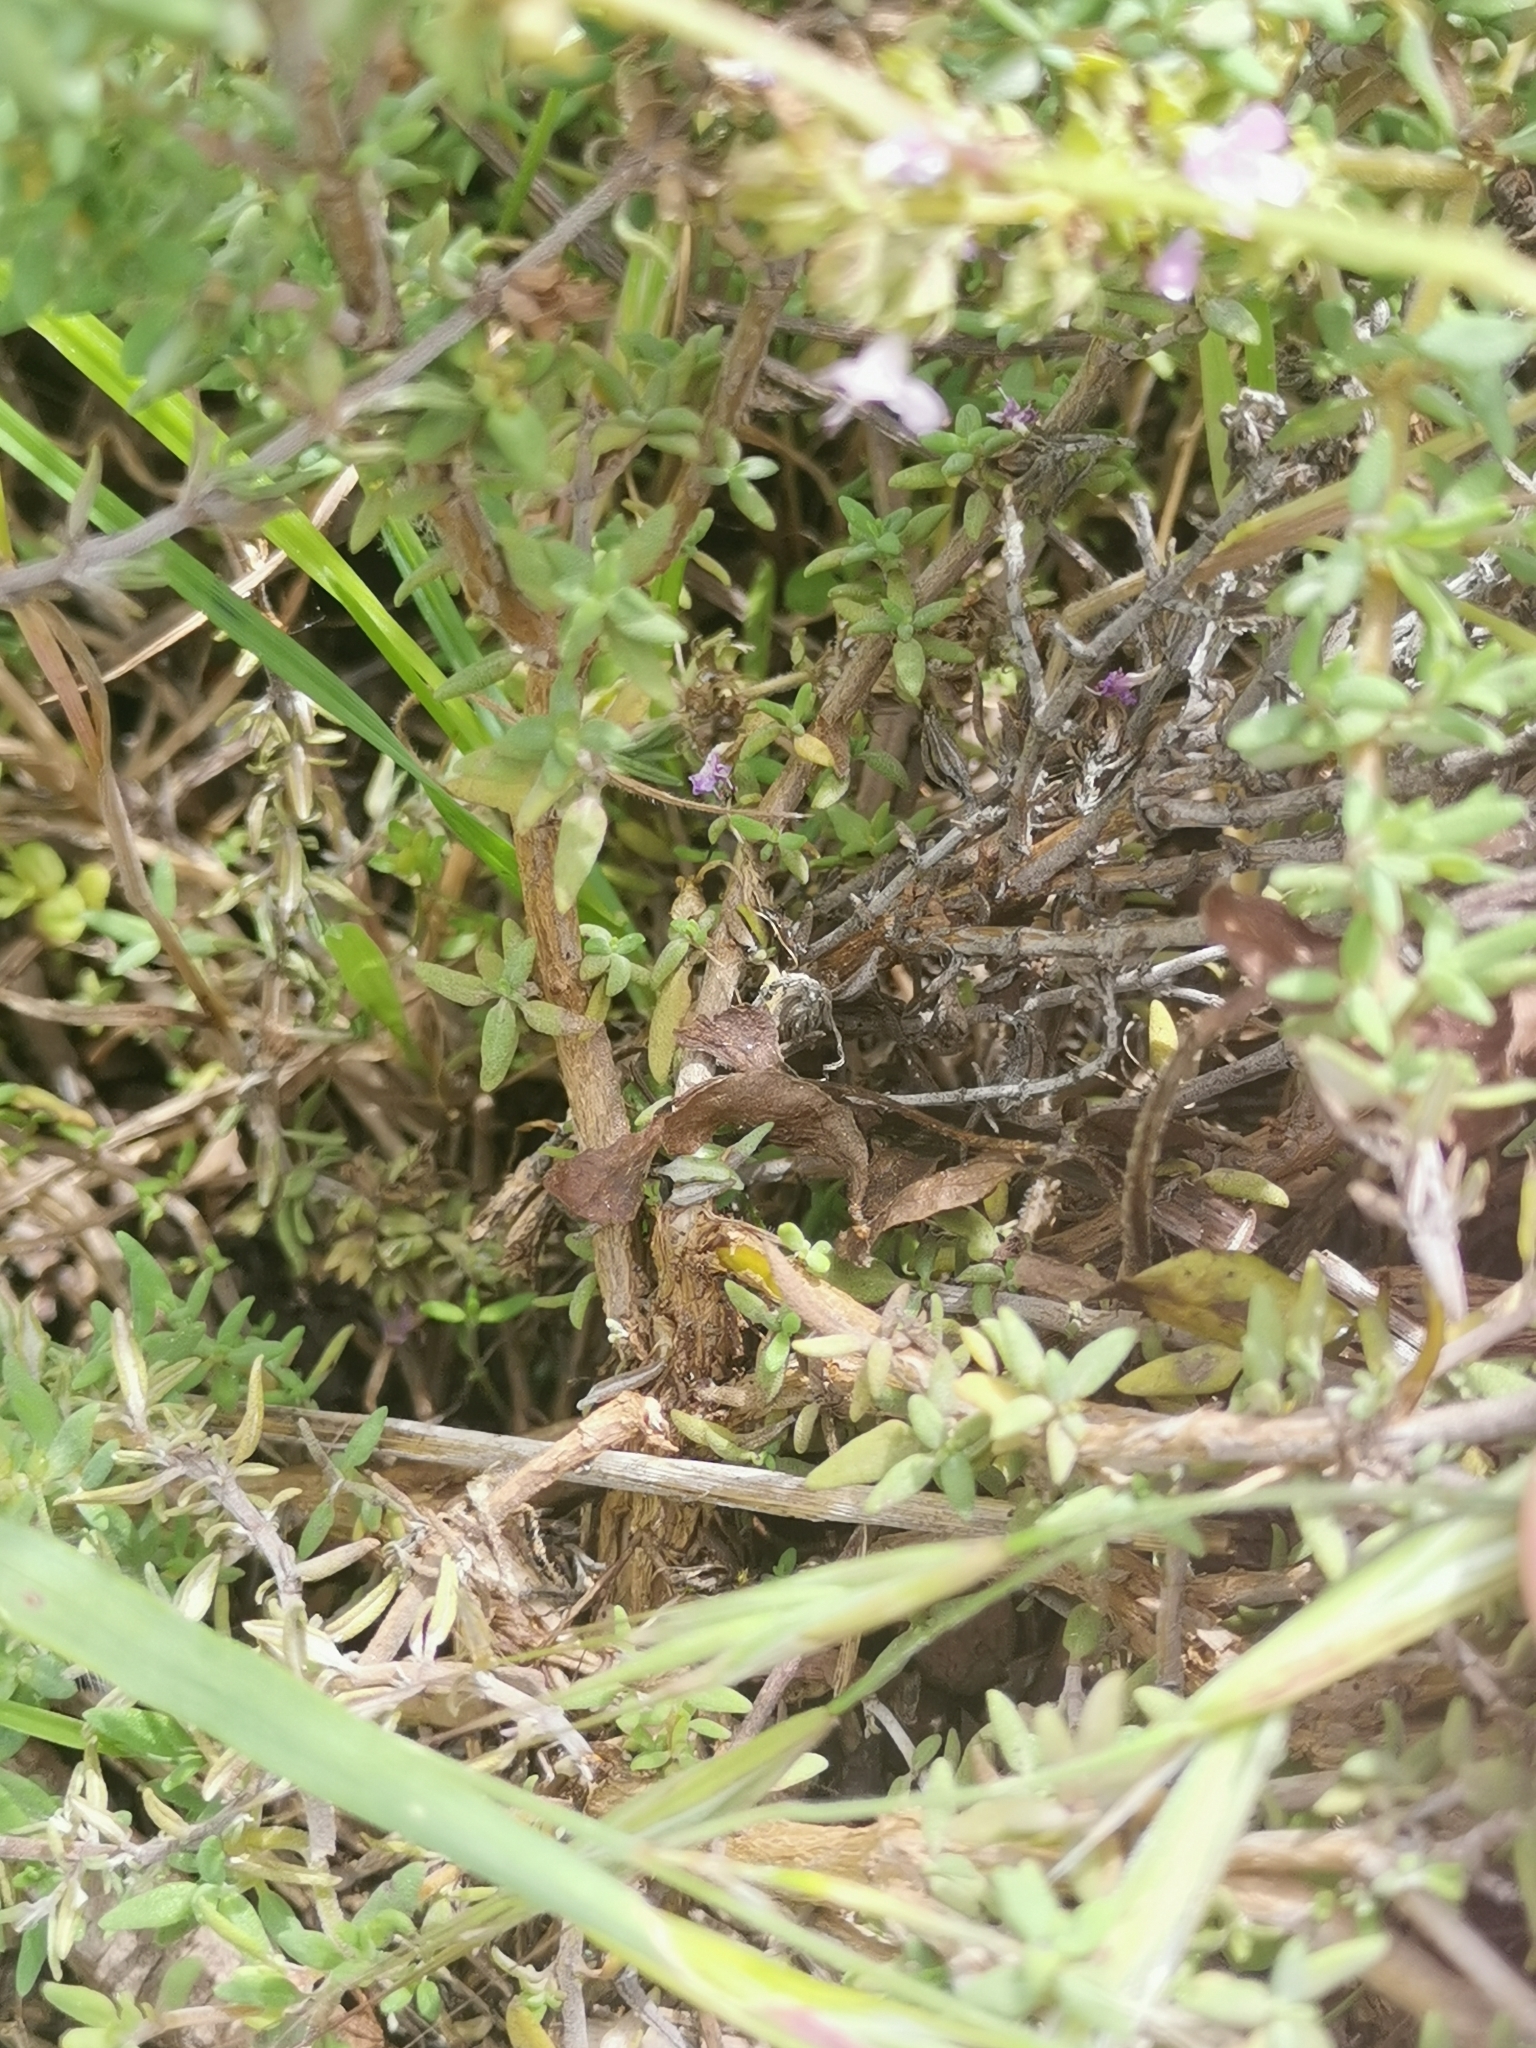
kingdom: Plantae
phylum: Tracheophyta
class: Magnoliopsida
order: Lamiales
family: Lamiaceae
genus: Thymus
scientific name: Thymus vulgaris
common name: Garden thyme
